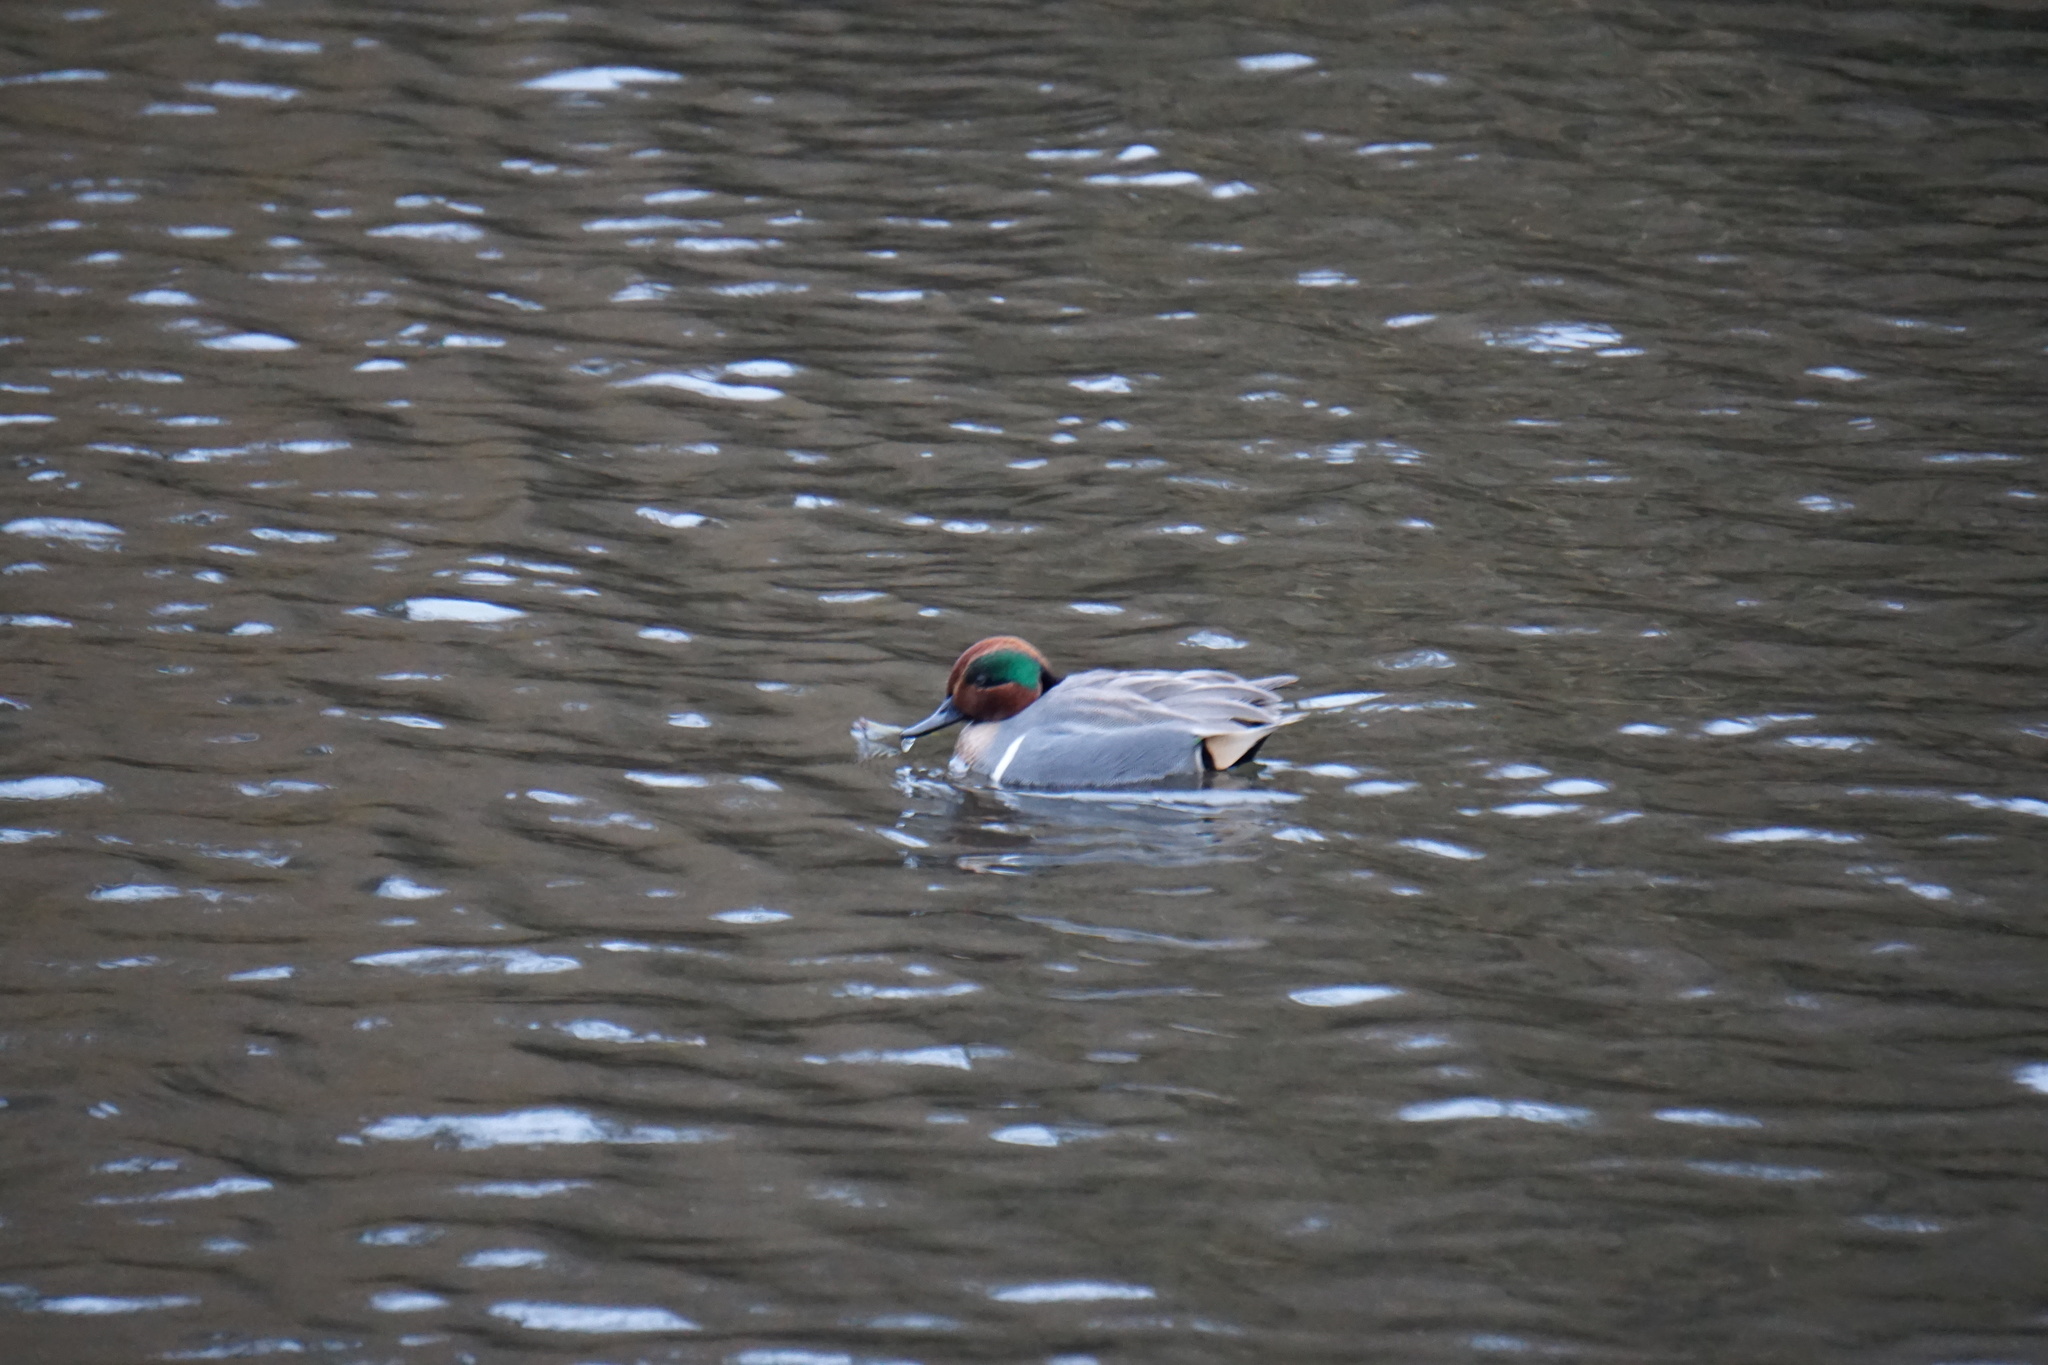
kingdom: Animalia
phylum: Chordata
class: Aves
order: Anseriformes
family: Anatidae
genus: Anas
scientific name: Anas crecca
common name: Eurasian teal
